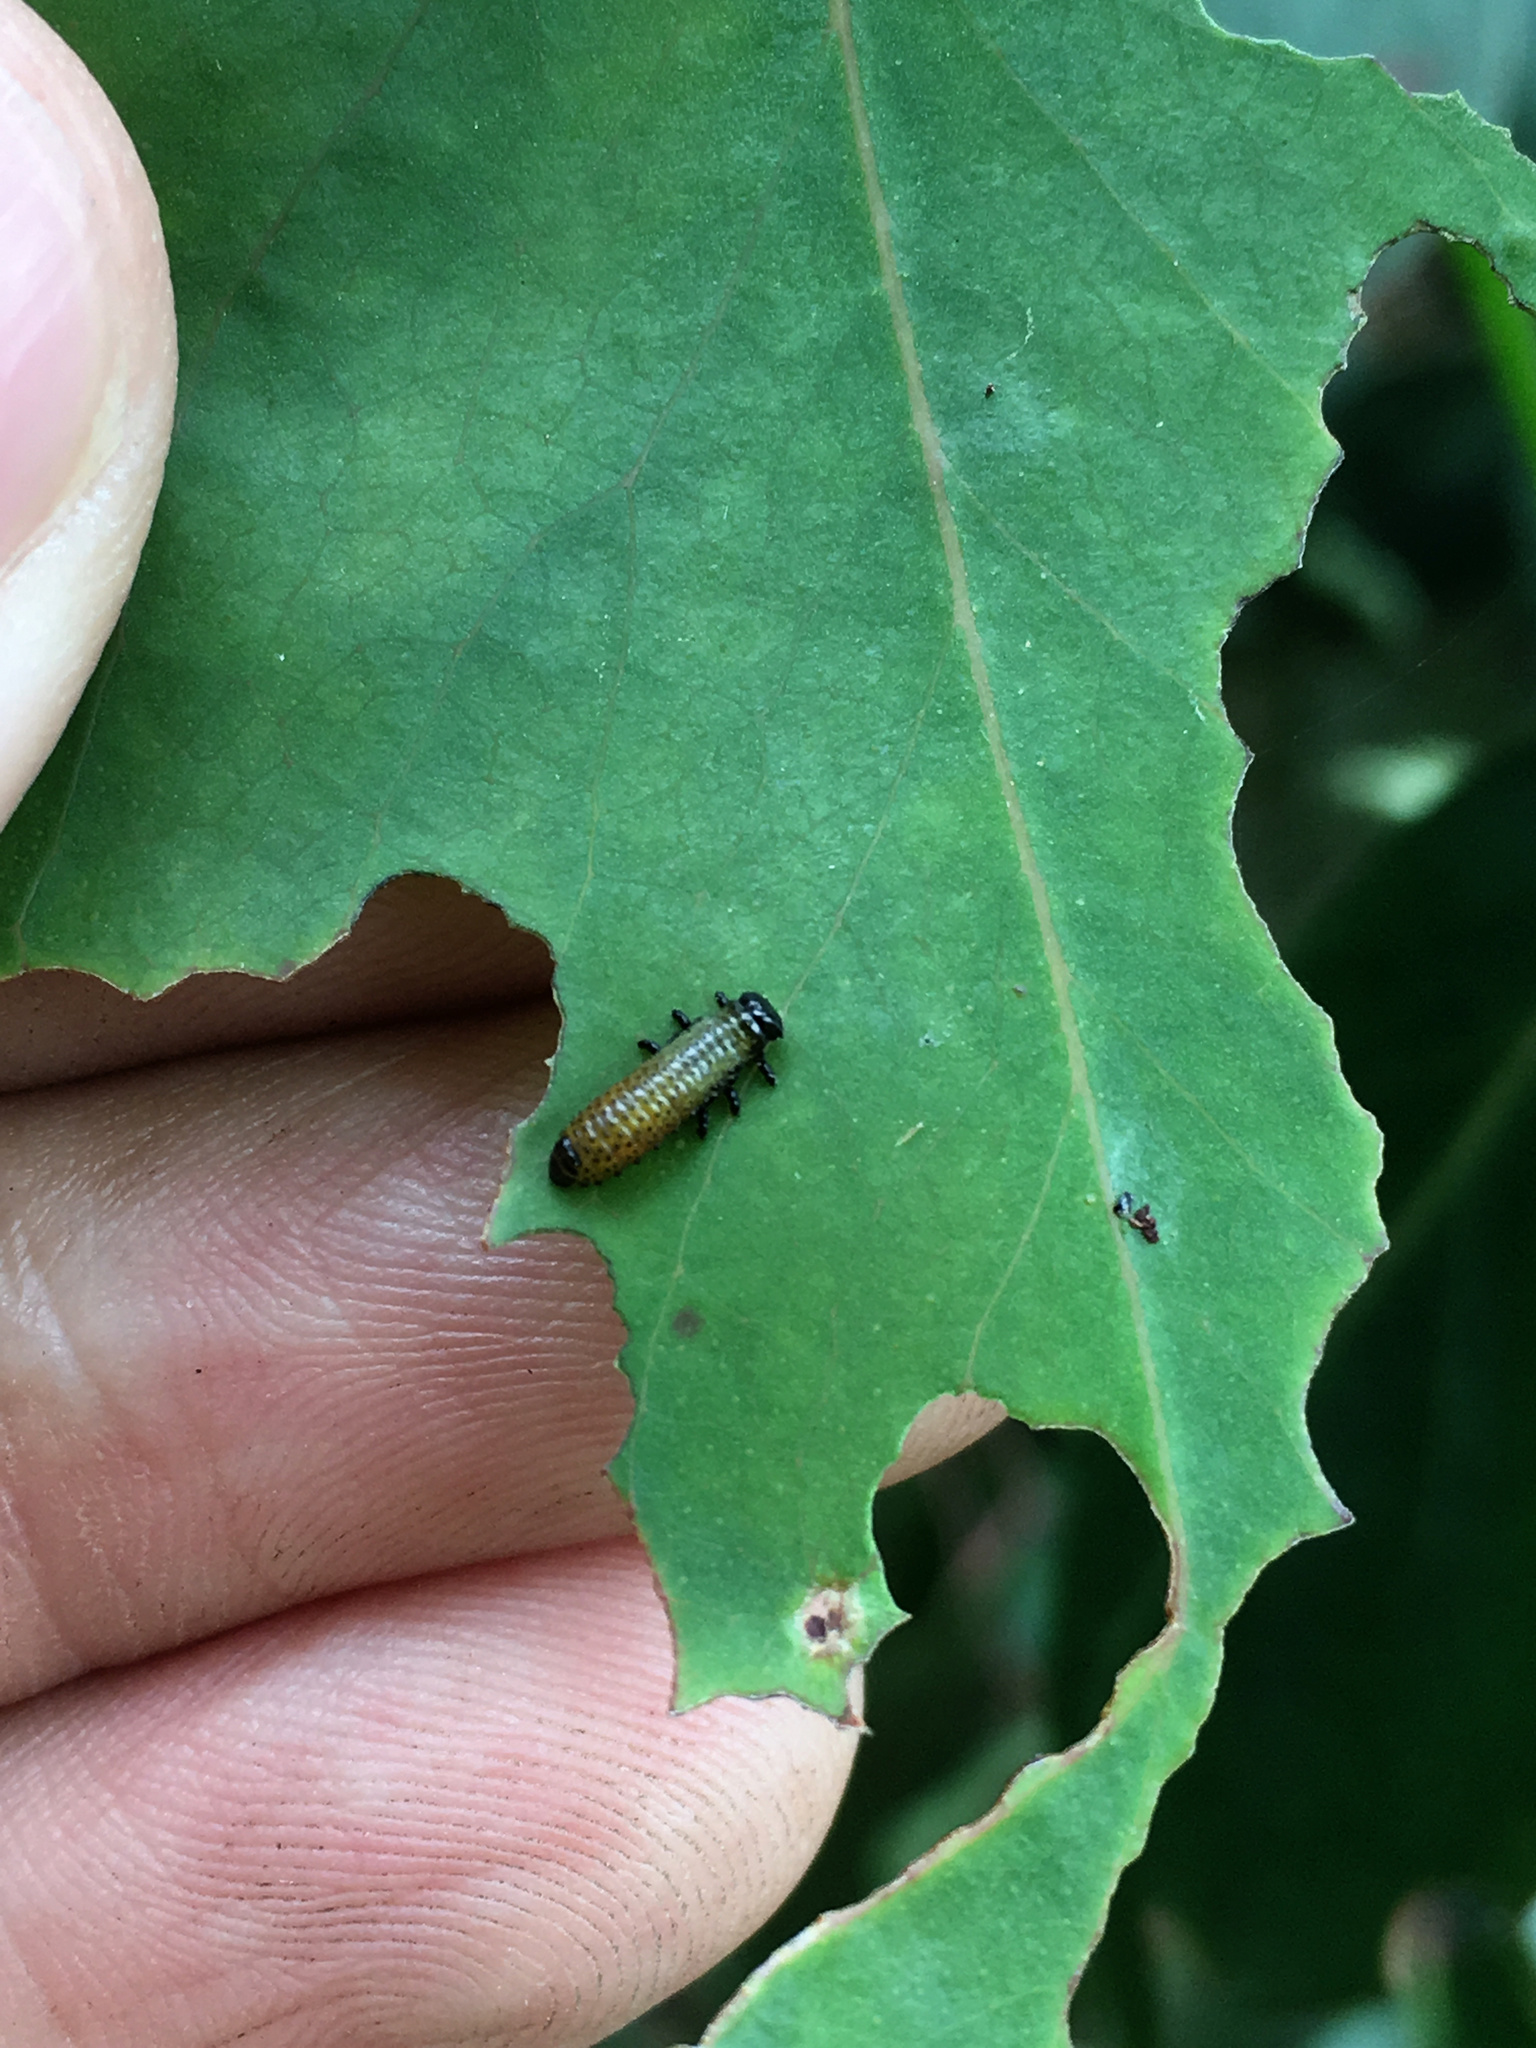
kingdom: Animalia
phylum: Arthropoda
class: Insecta
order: Coleoptera
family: Chrysomelidae
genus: Paropsis
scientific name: Paropsis charybdis
